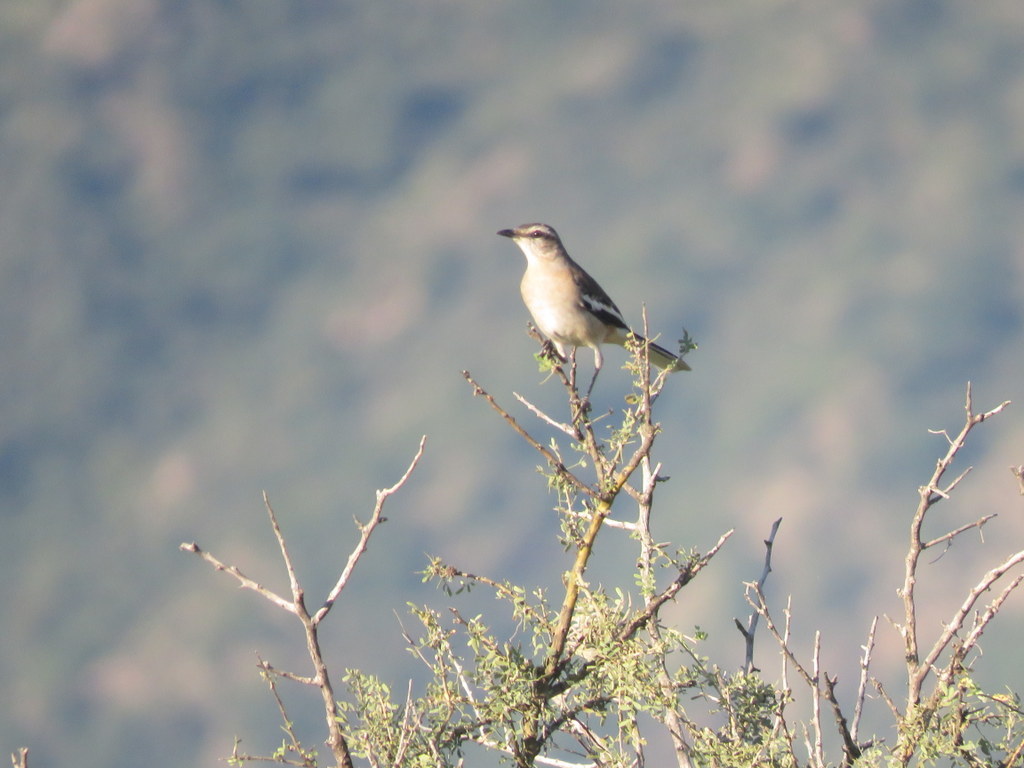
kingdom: Animalia
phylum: Chordata
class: Aves
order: Passeriformes
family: Mimidae
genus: Mimus
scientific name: Mimus triurus
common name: White-banded mockingbird
